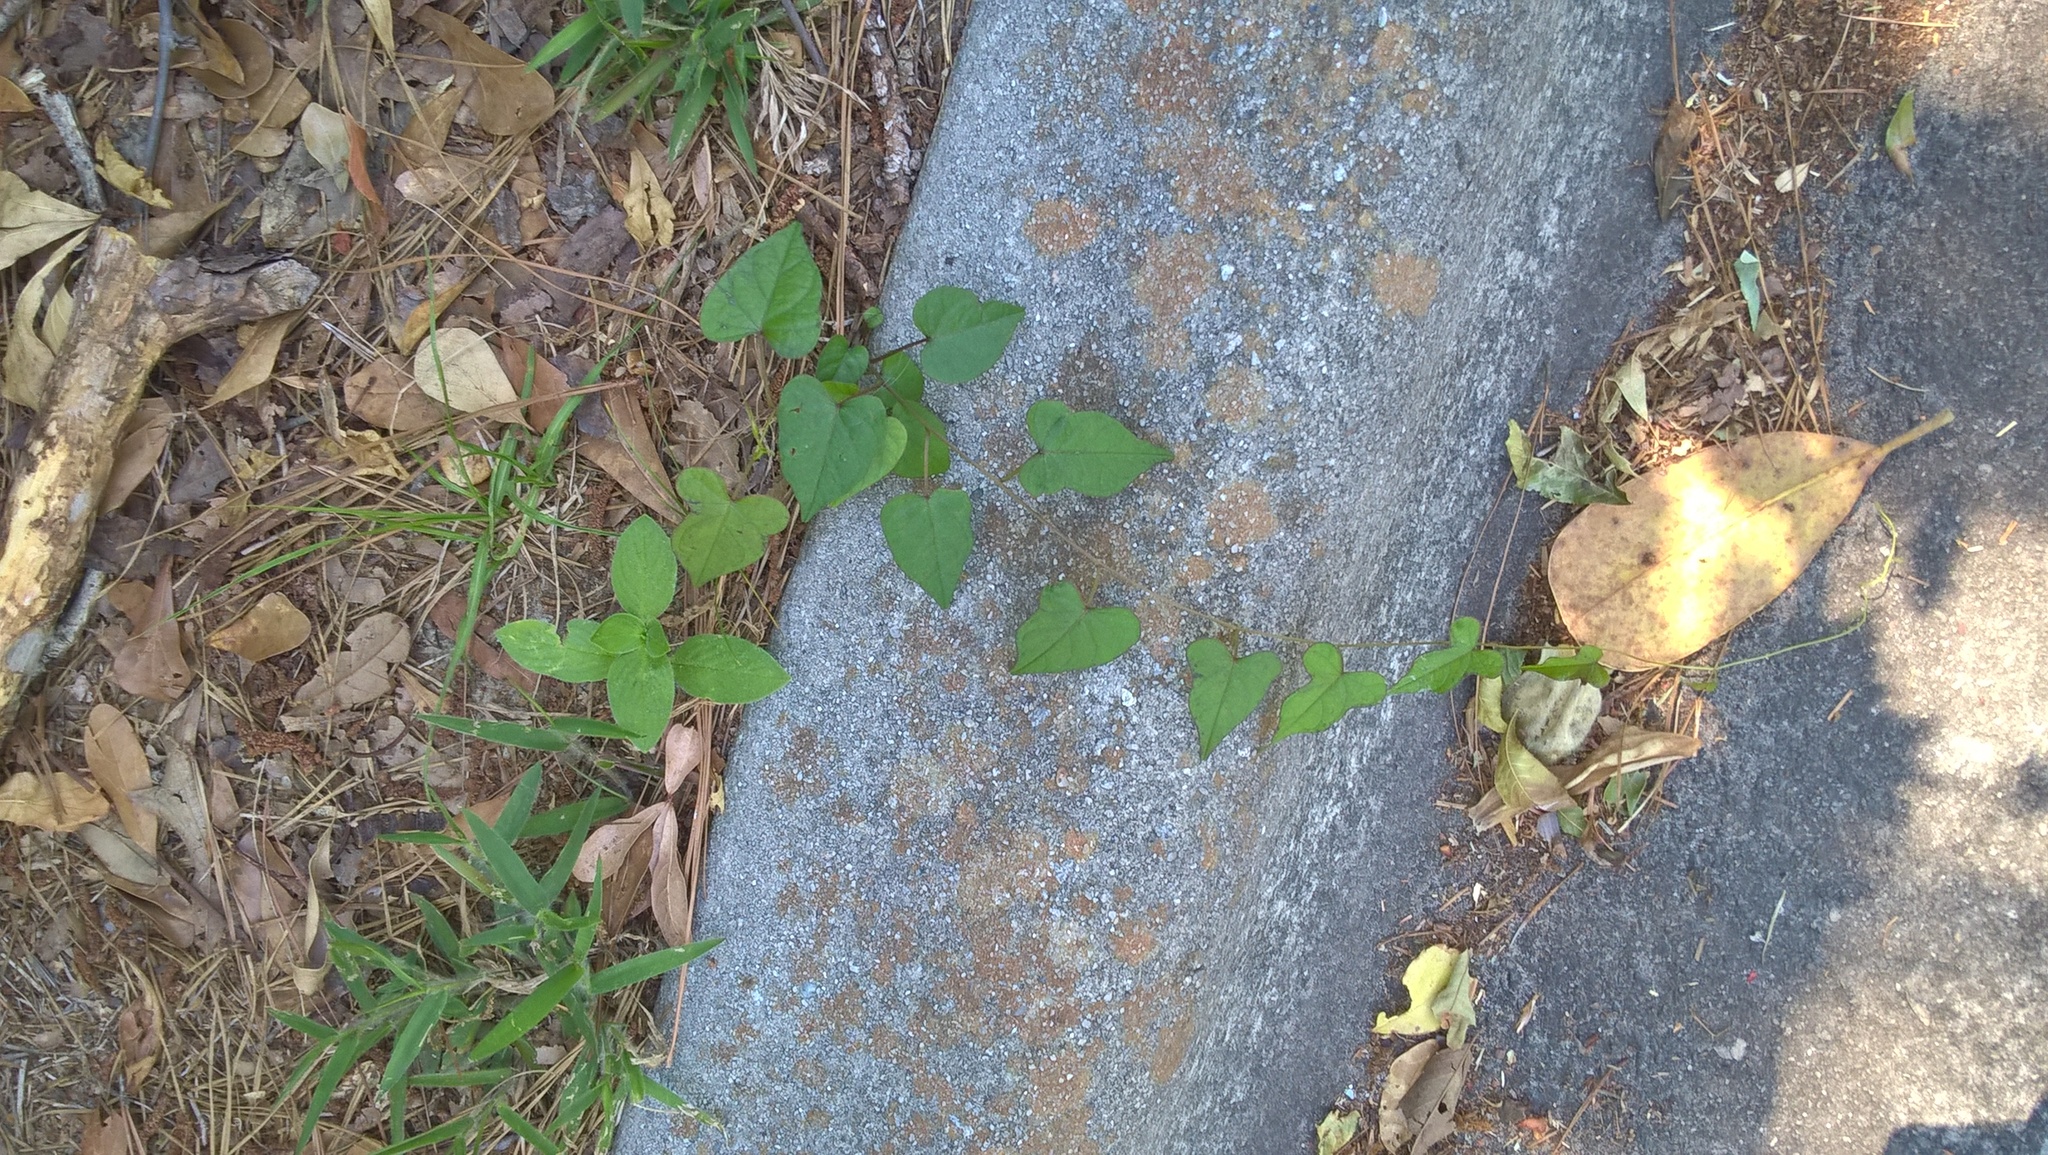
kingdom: Plantae
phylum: Tracheophyta
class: Magnoliopsida
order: Solanales
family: Convolvulaceae
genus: Ipomoea
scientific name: Ipomoea pandurata
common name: Man-of-the-earth
